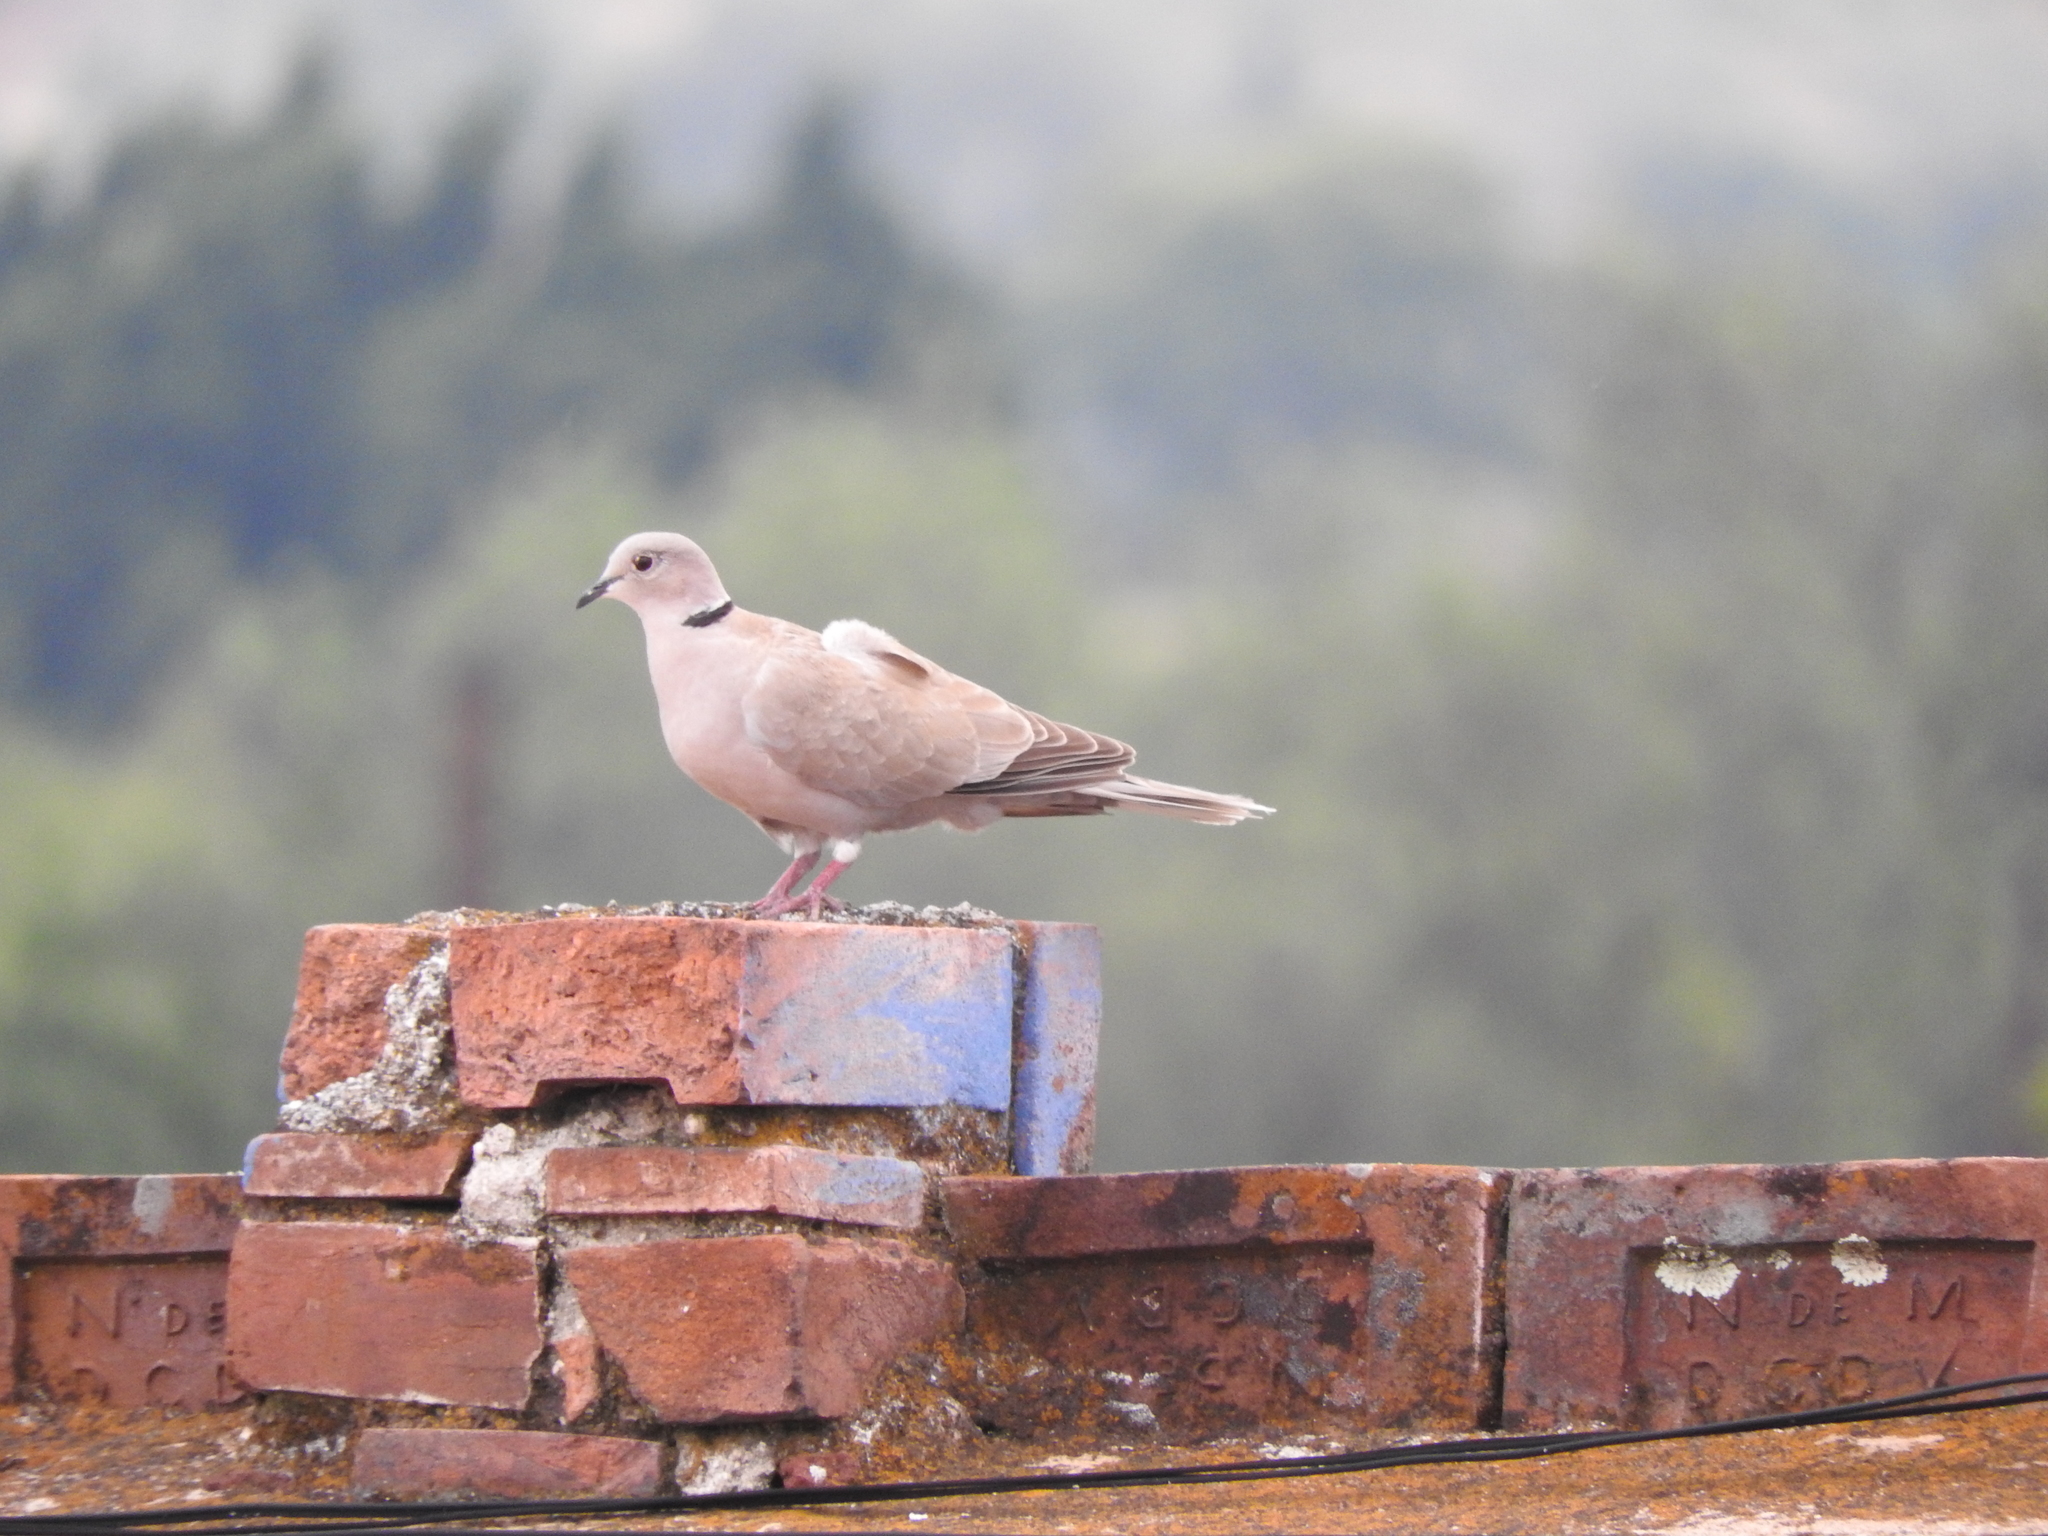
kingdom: Animalia
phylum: Chordata
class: Aves
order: Columbiformes
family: Columbidae
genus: Streptopelia
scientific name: Streptopelia decaocto
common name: Eurasian collared dove
